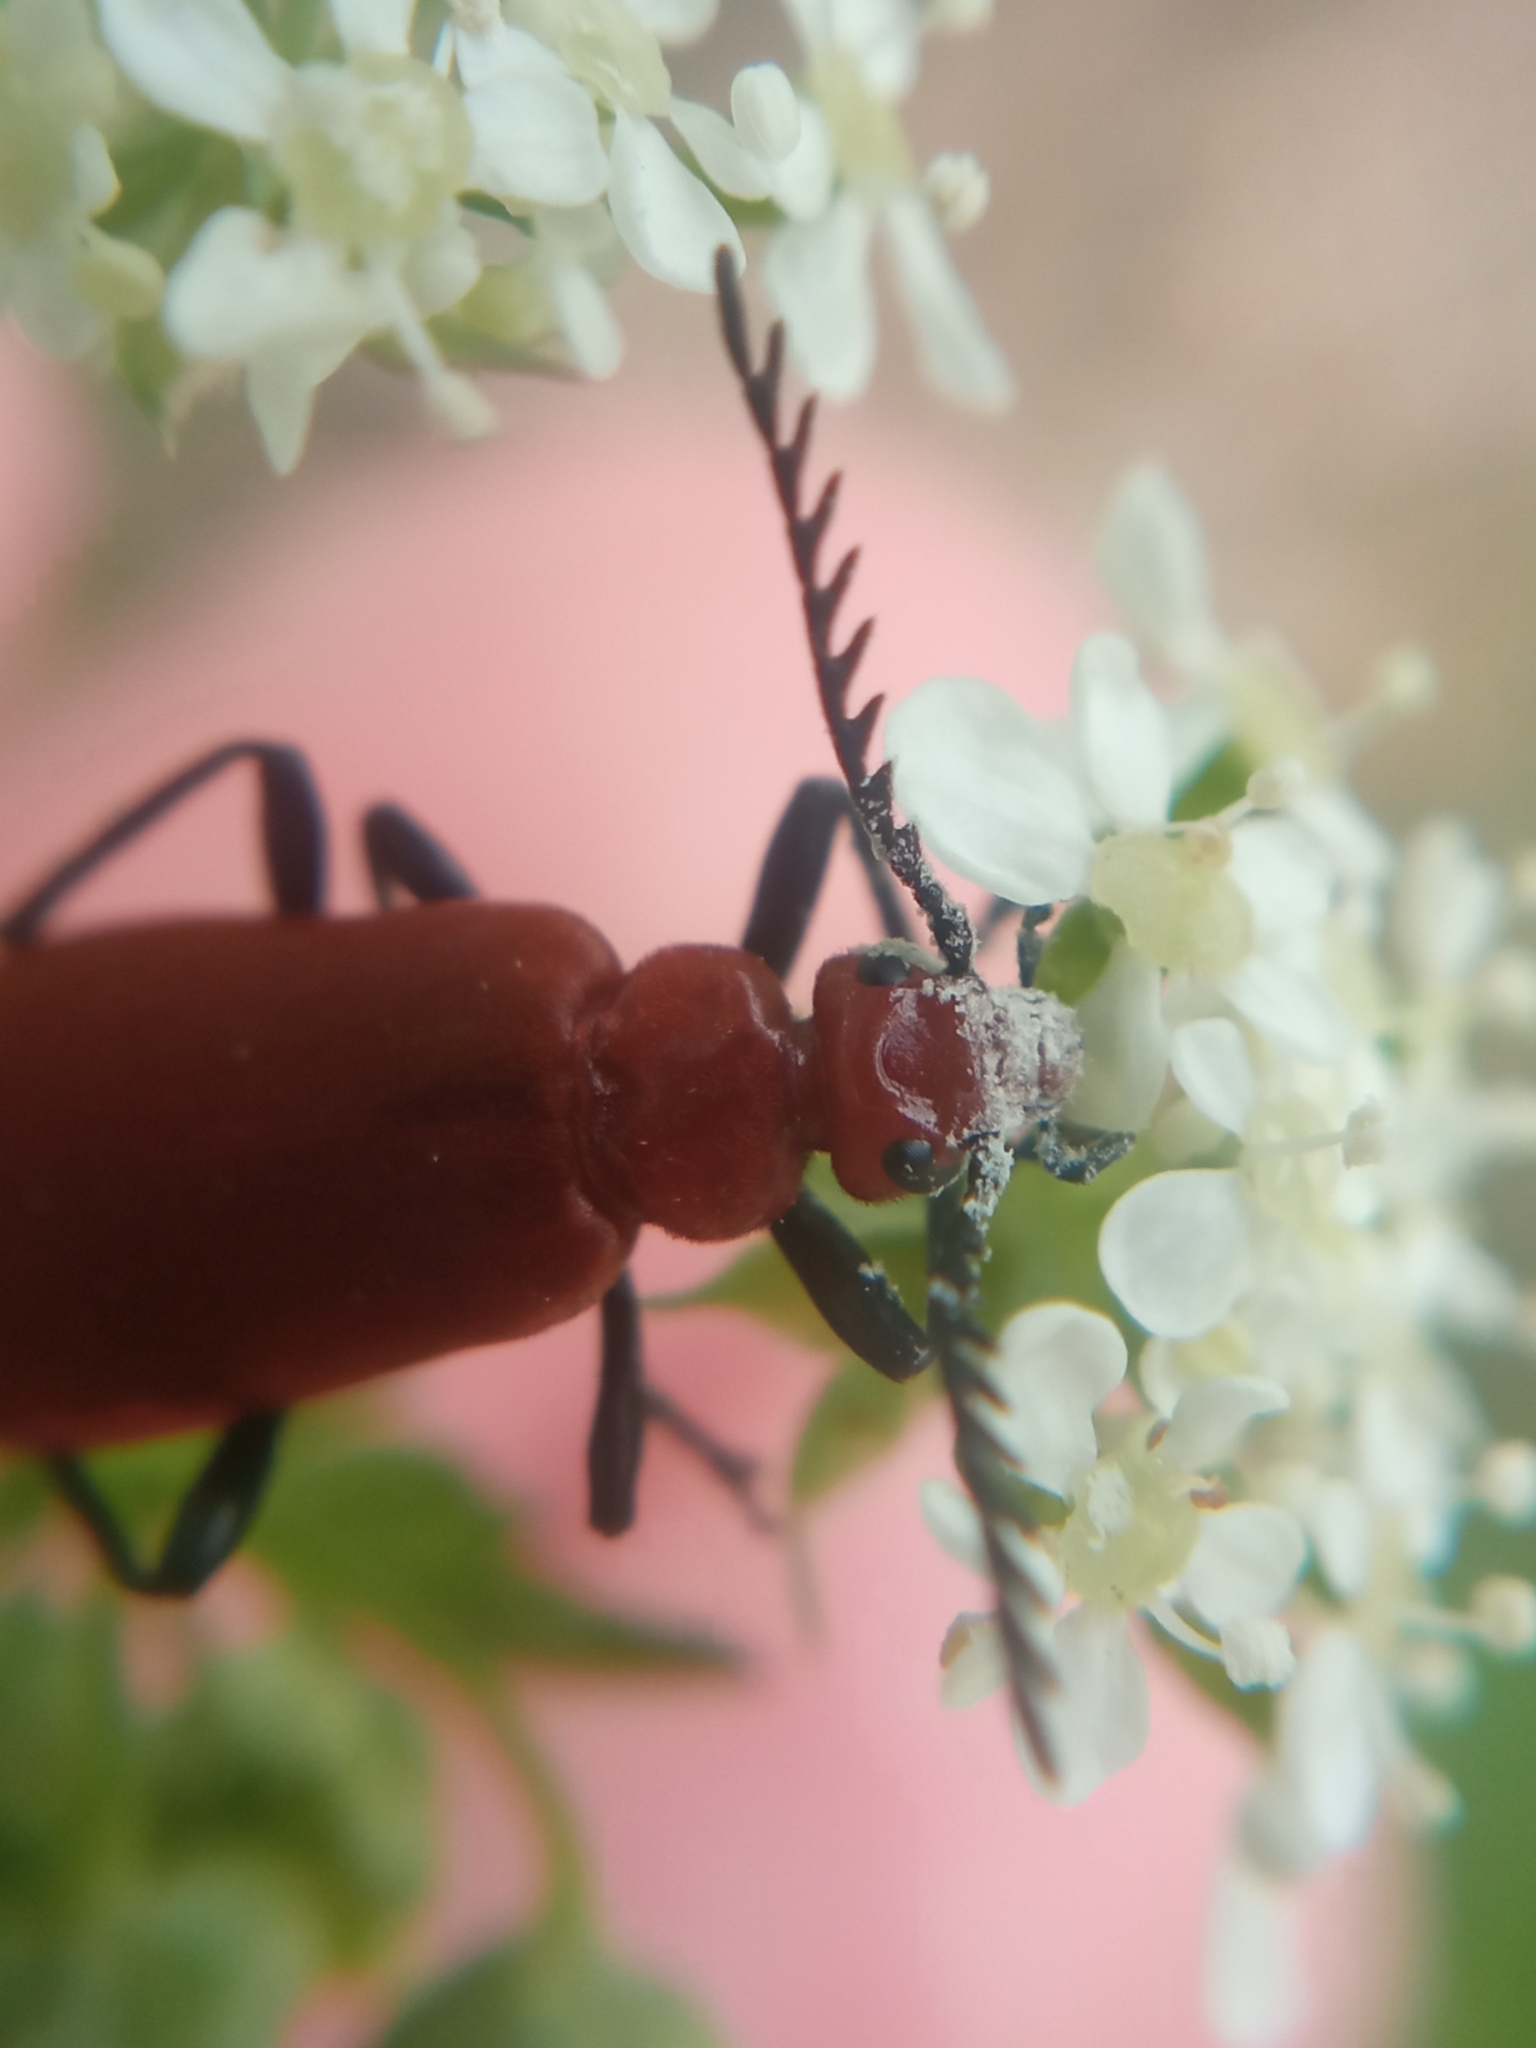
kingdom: Animalia
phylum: Arthropoda
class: Insecta
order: Coleoptera
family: Pyrochroidae
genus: Pyrochroa
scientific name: Pyrochroa serraticornis
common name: Red-headed cardinal beetle
